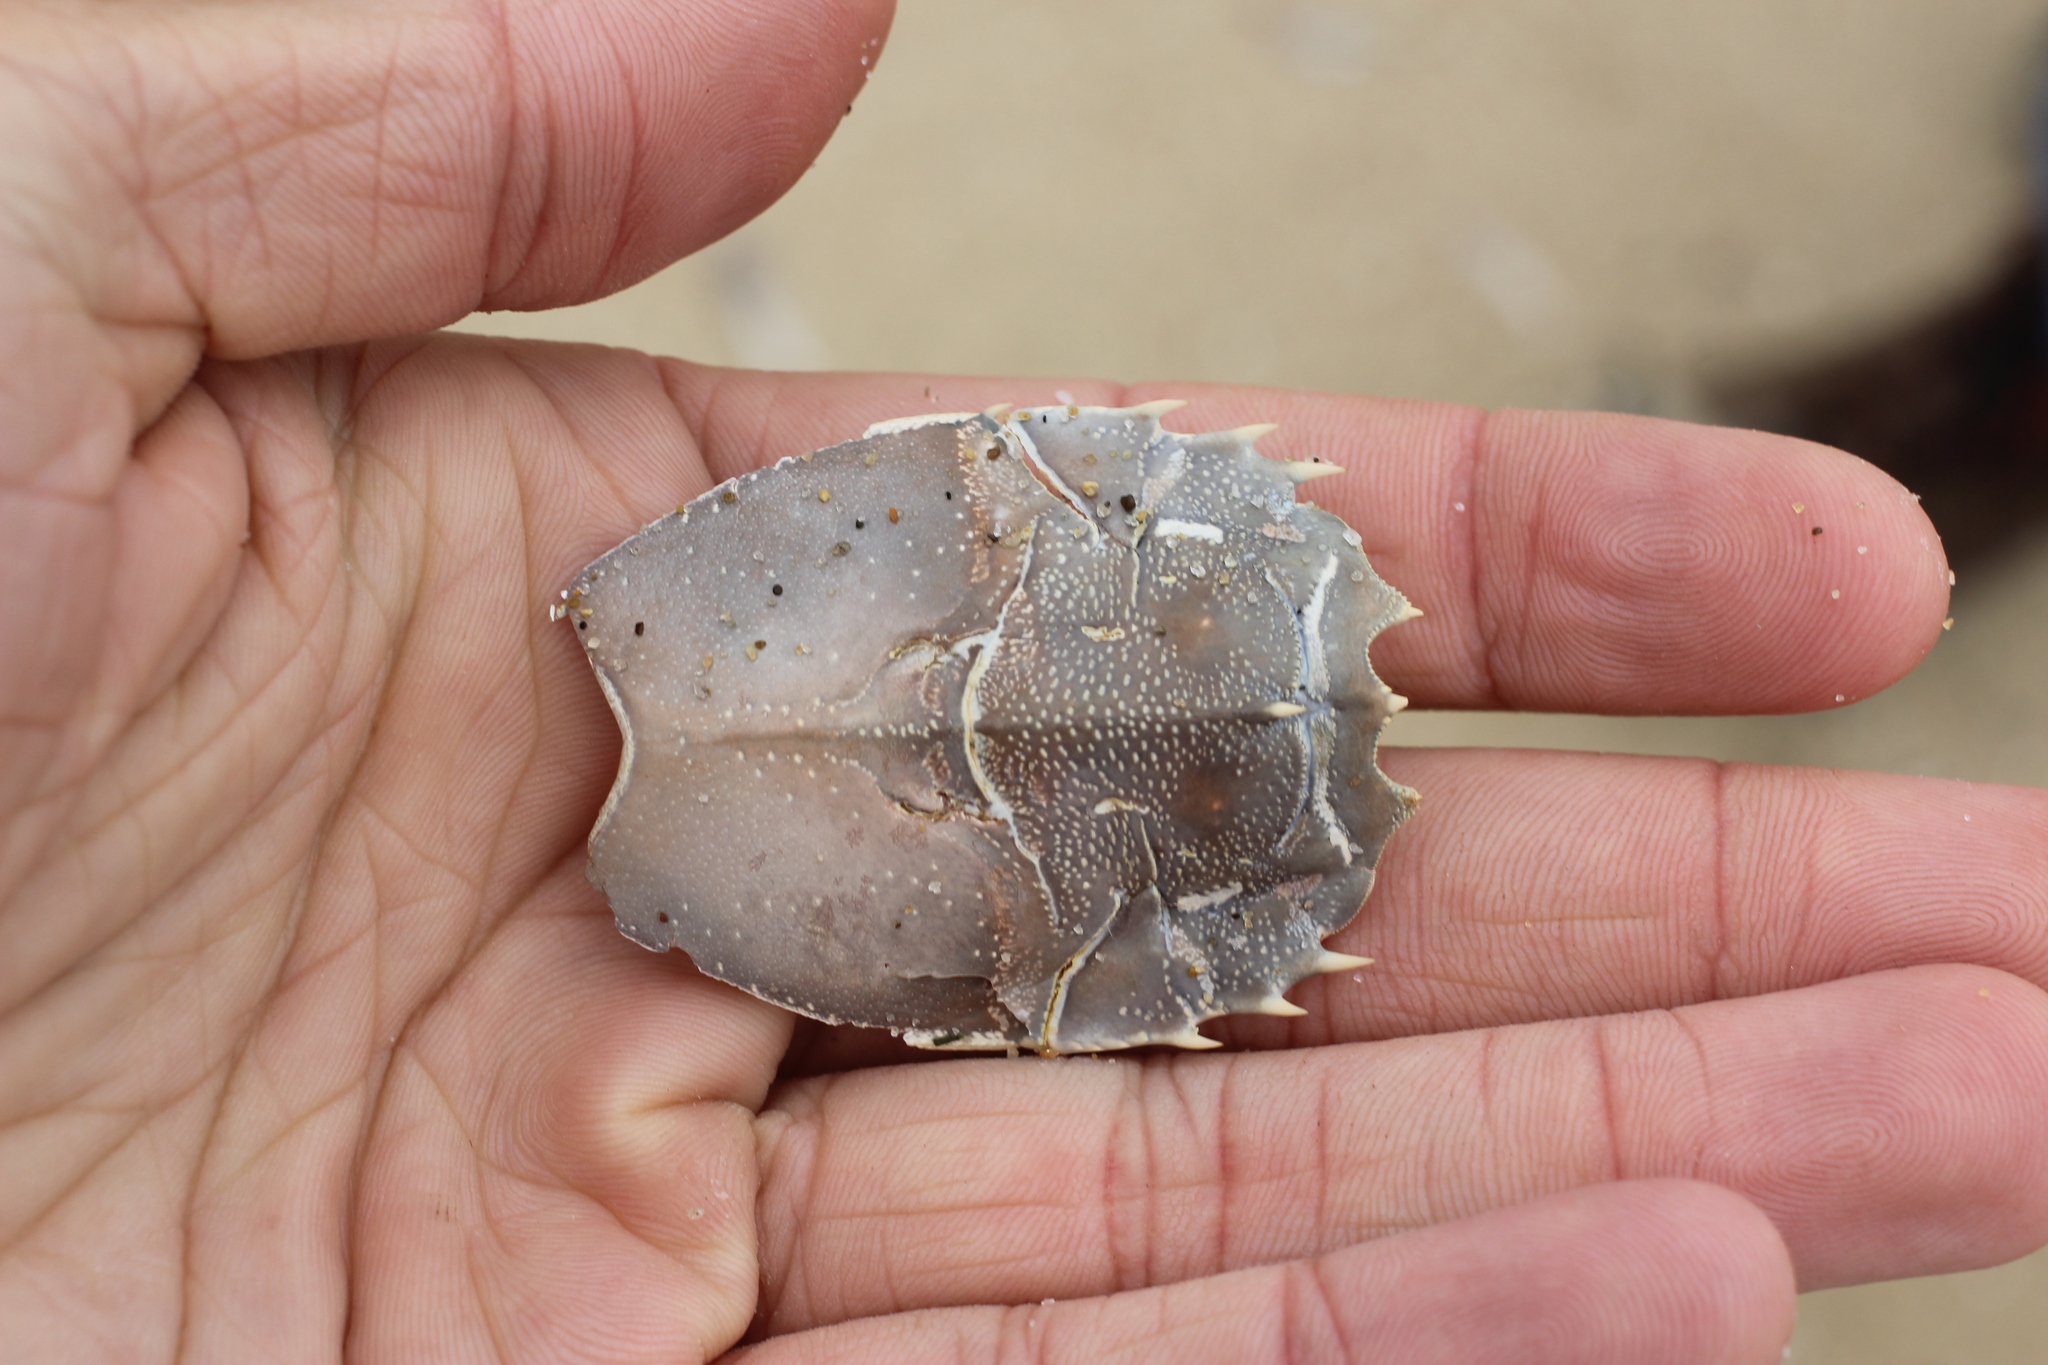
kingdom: Animalia
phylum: Arthropoda
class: Malacostraca
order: Decapoda
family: Blepharipodidae
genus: Blepharipoda
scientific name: Blepharipoda occidentalis
